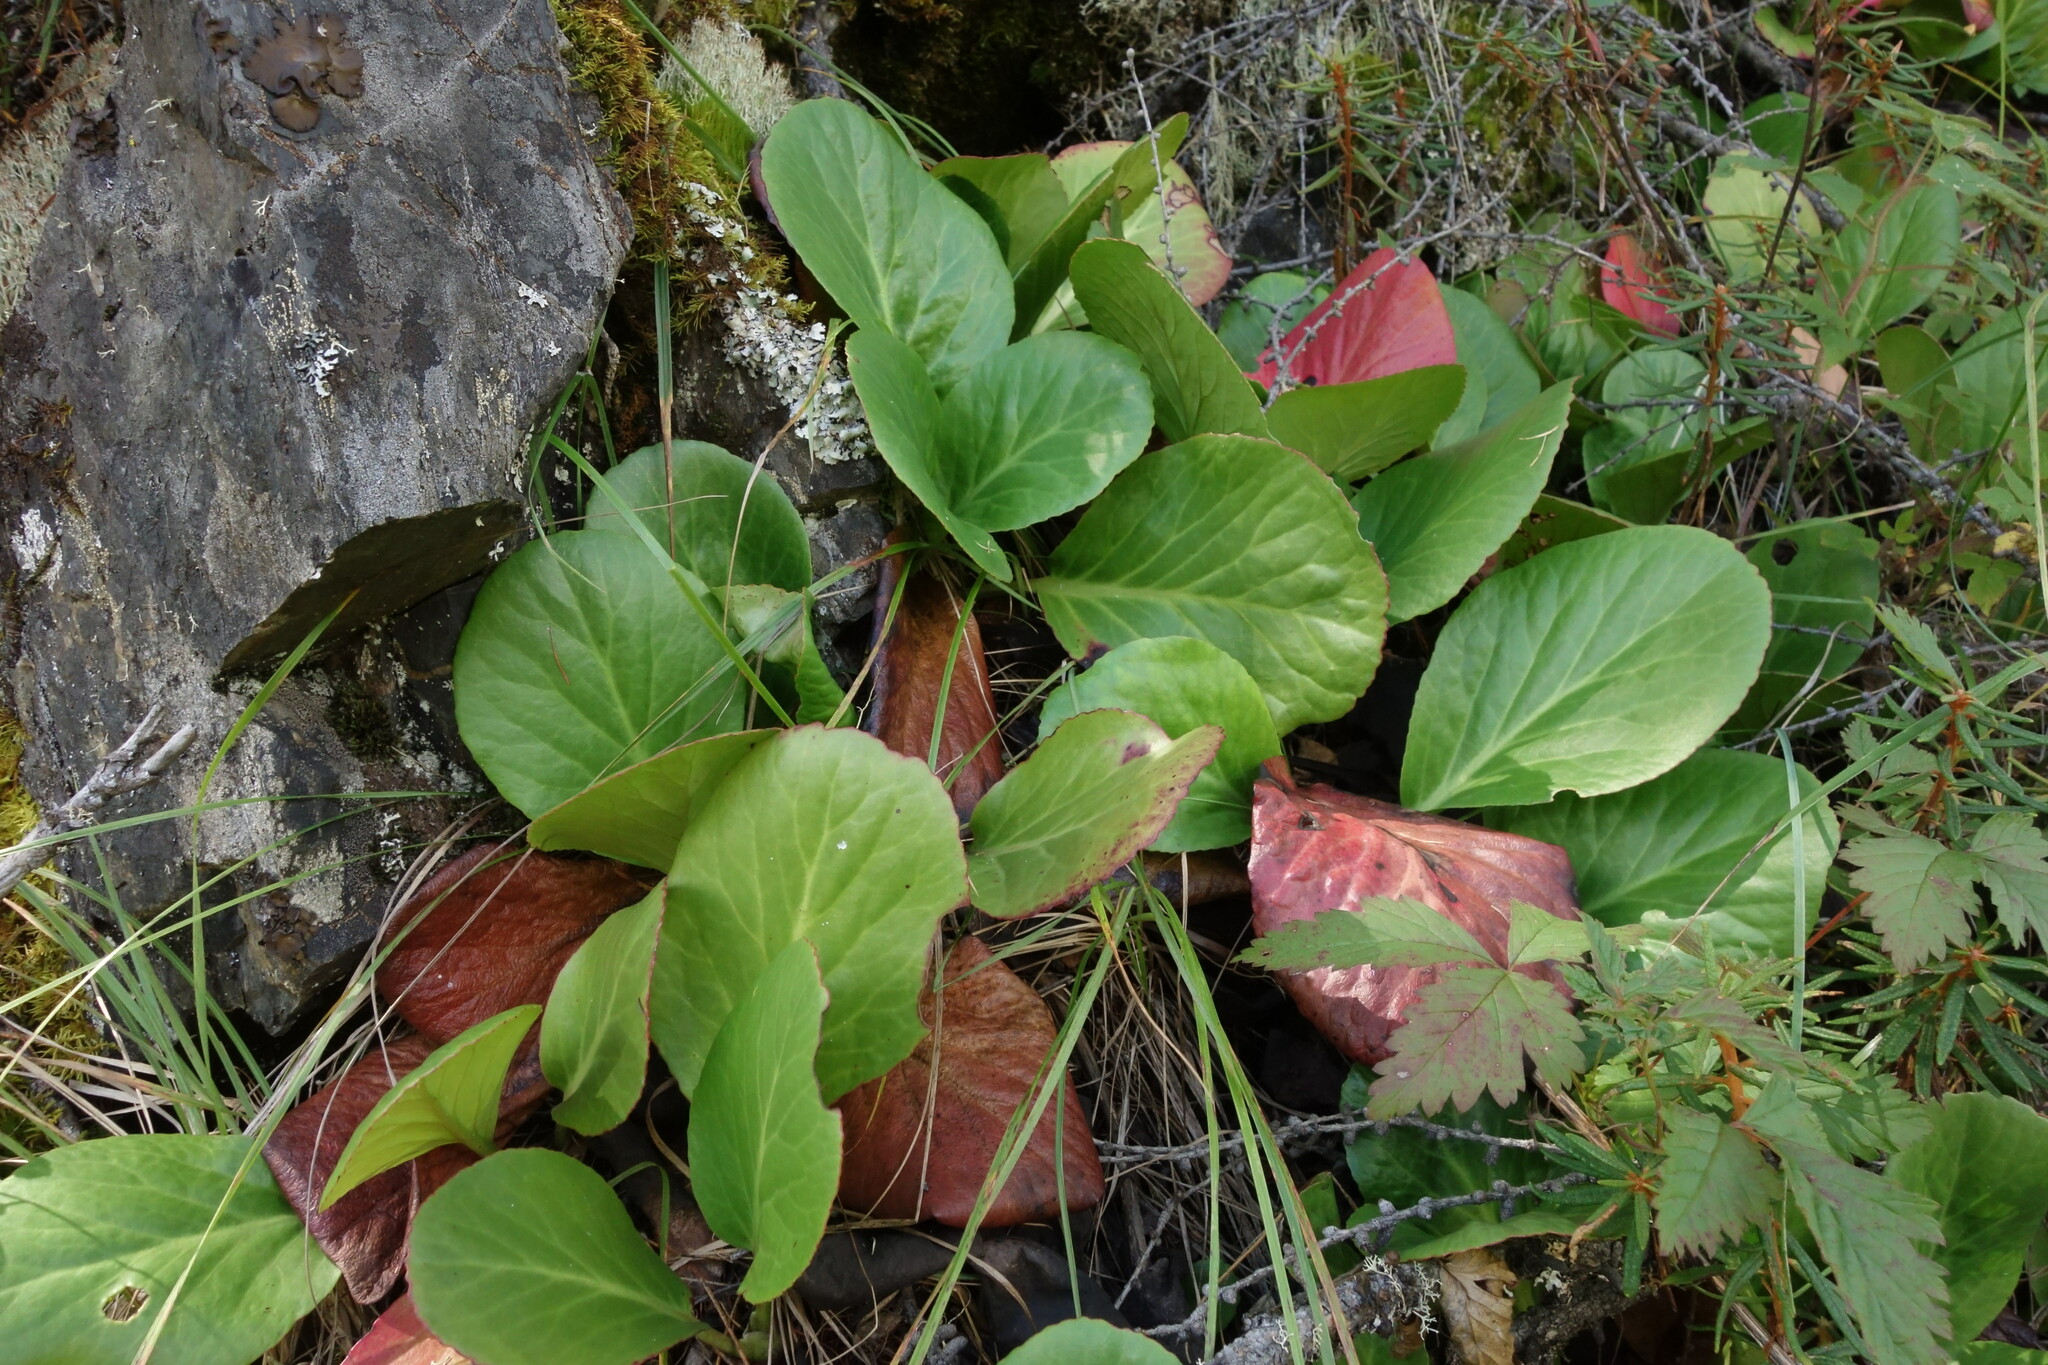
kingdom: Plantae
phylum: Tracheophyta
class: Magnoliopsida
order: Saxifragales
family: Saxifragaceae
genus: Bergenia
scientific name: Bergenia crassifolia
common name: Elephant-ears
